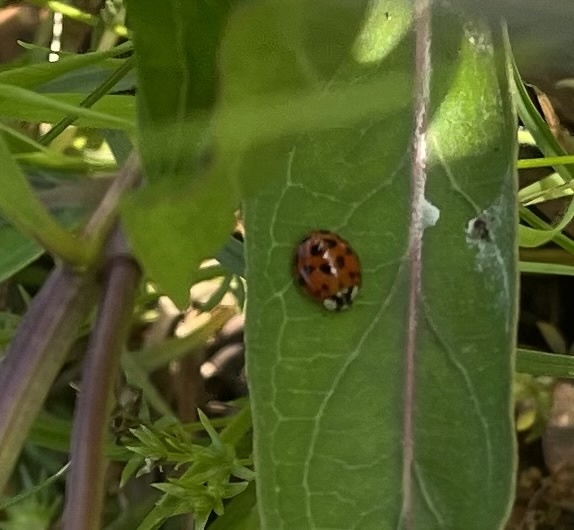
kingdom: Animalia
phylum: Arthropoda
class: Insecta
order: Coleoptera
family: Coccinellidae
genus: Harmonia
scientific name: Harmonia axyridis
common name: Harlequin ladybird
